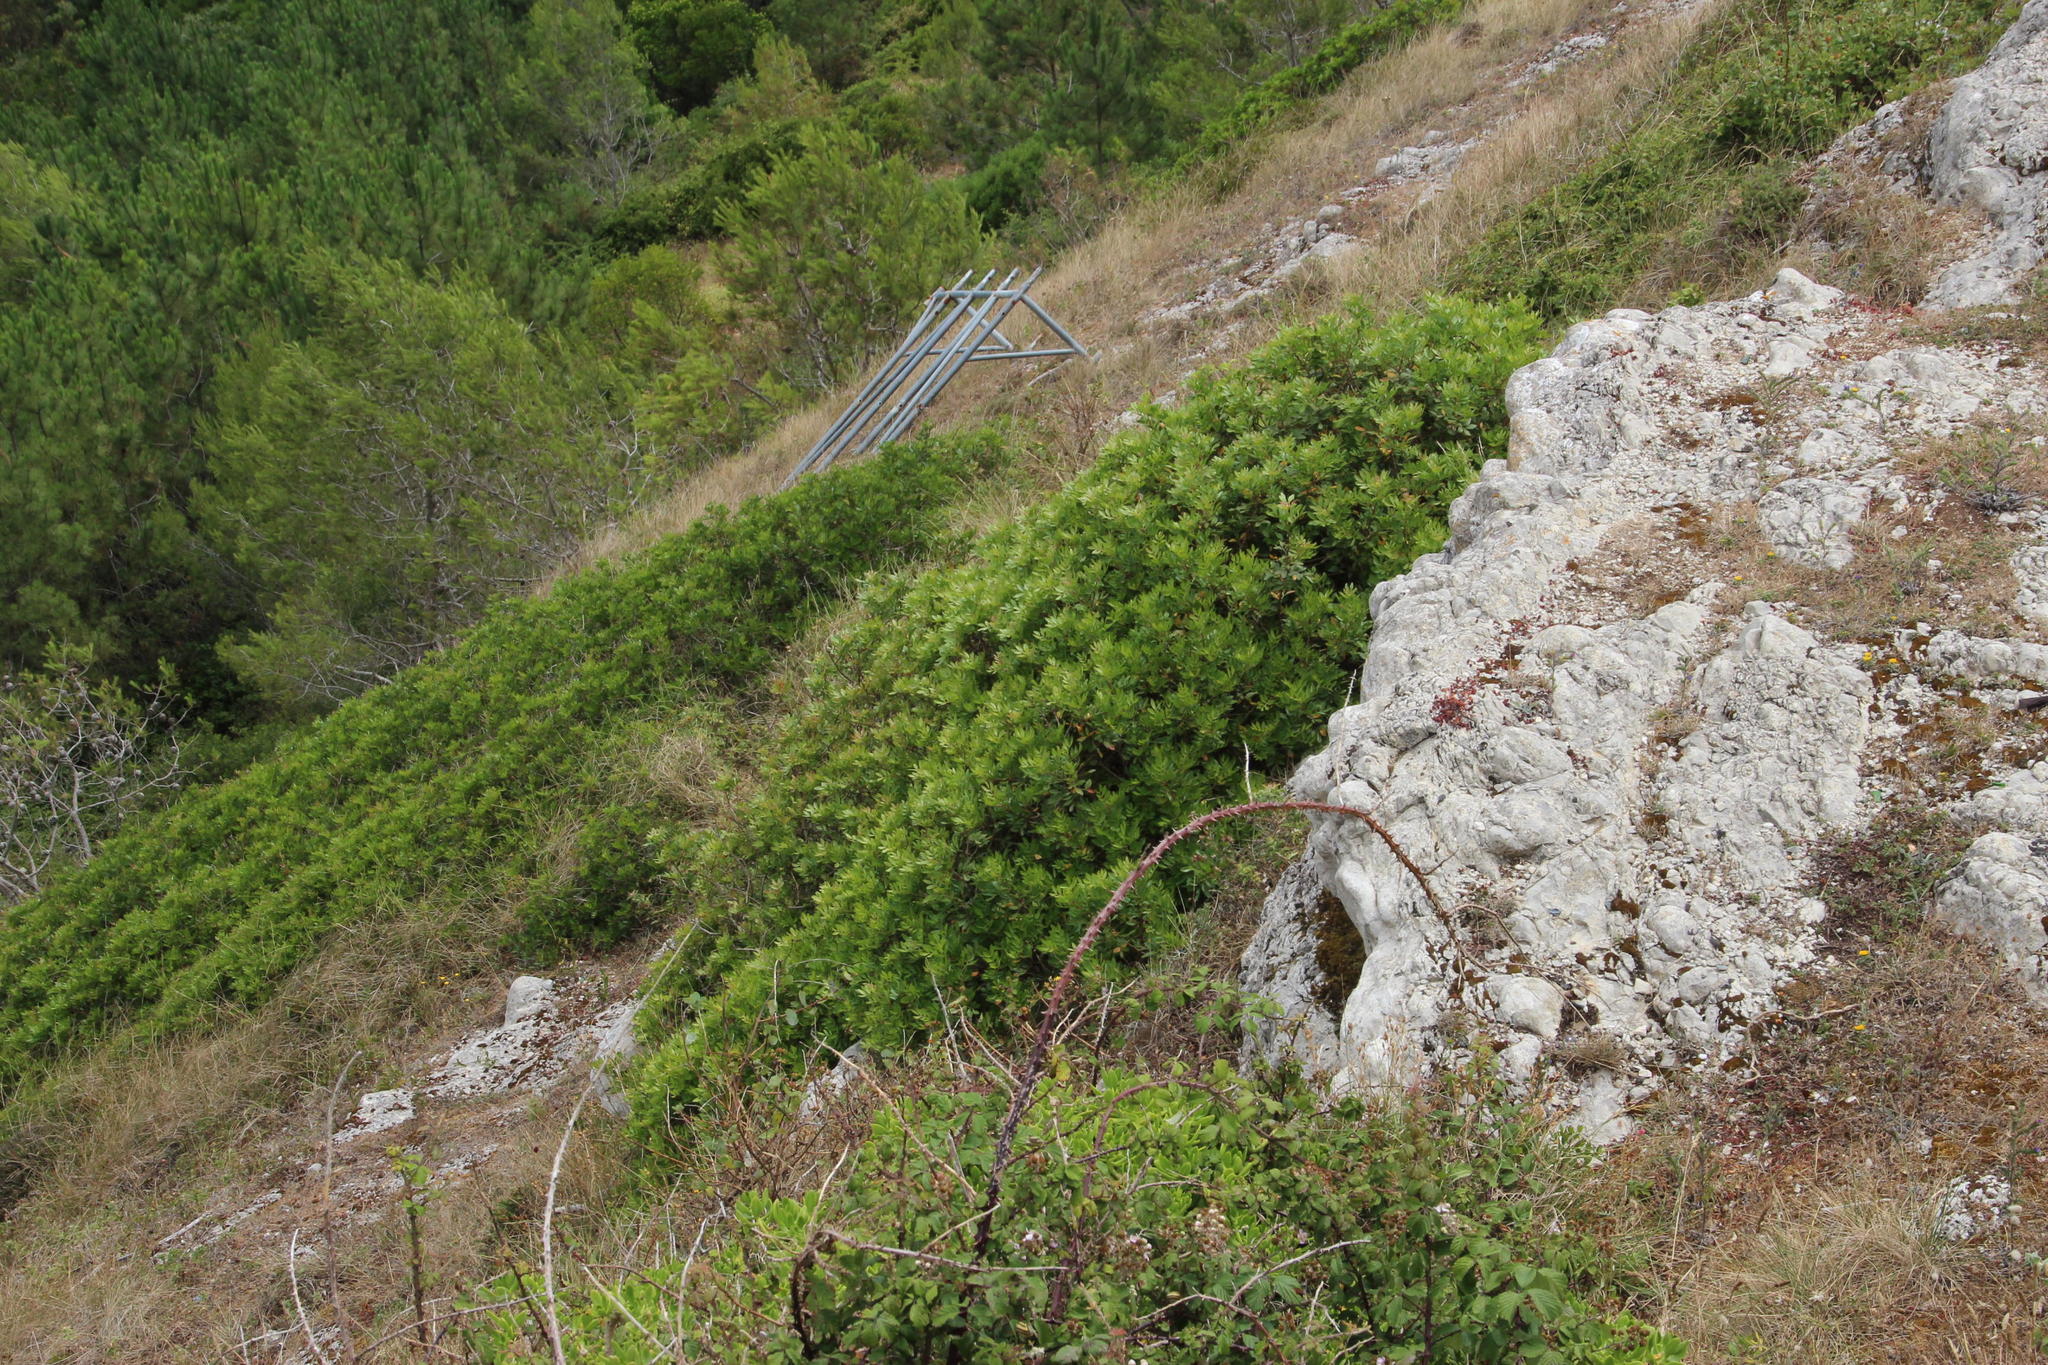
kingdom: Plantae
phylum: Tracheophyta
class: Magnoliopsida
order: Sapindales
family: Anacardiaceae
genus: Pistacia
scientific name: Pistacia lentiscus
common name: Lentisk
